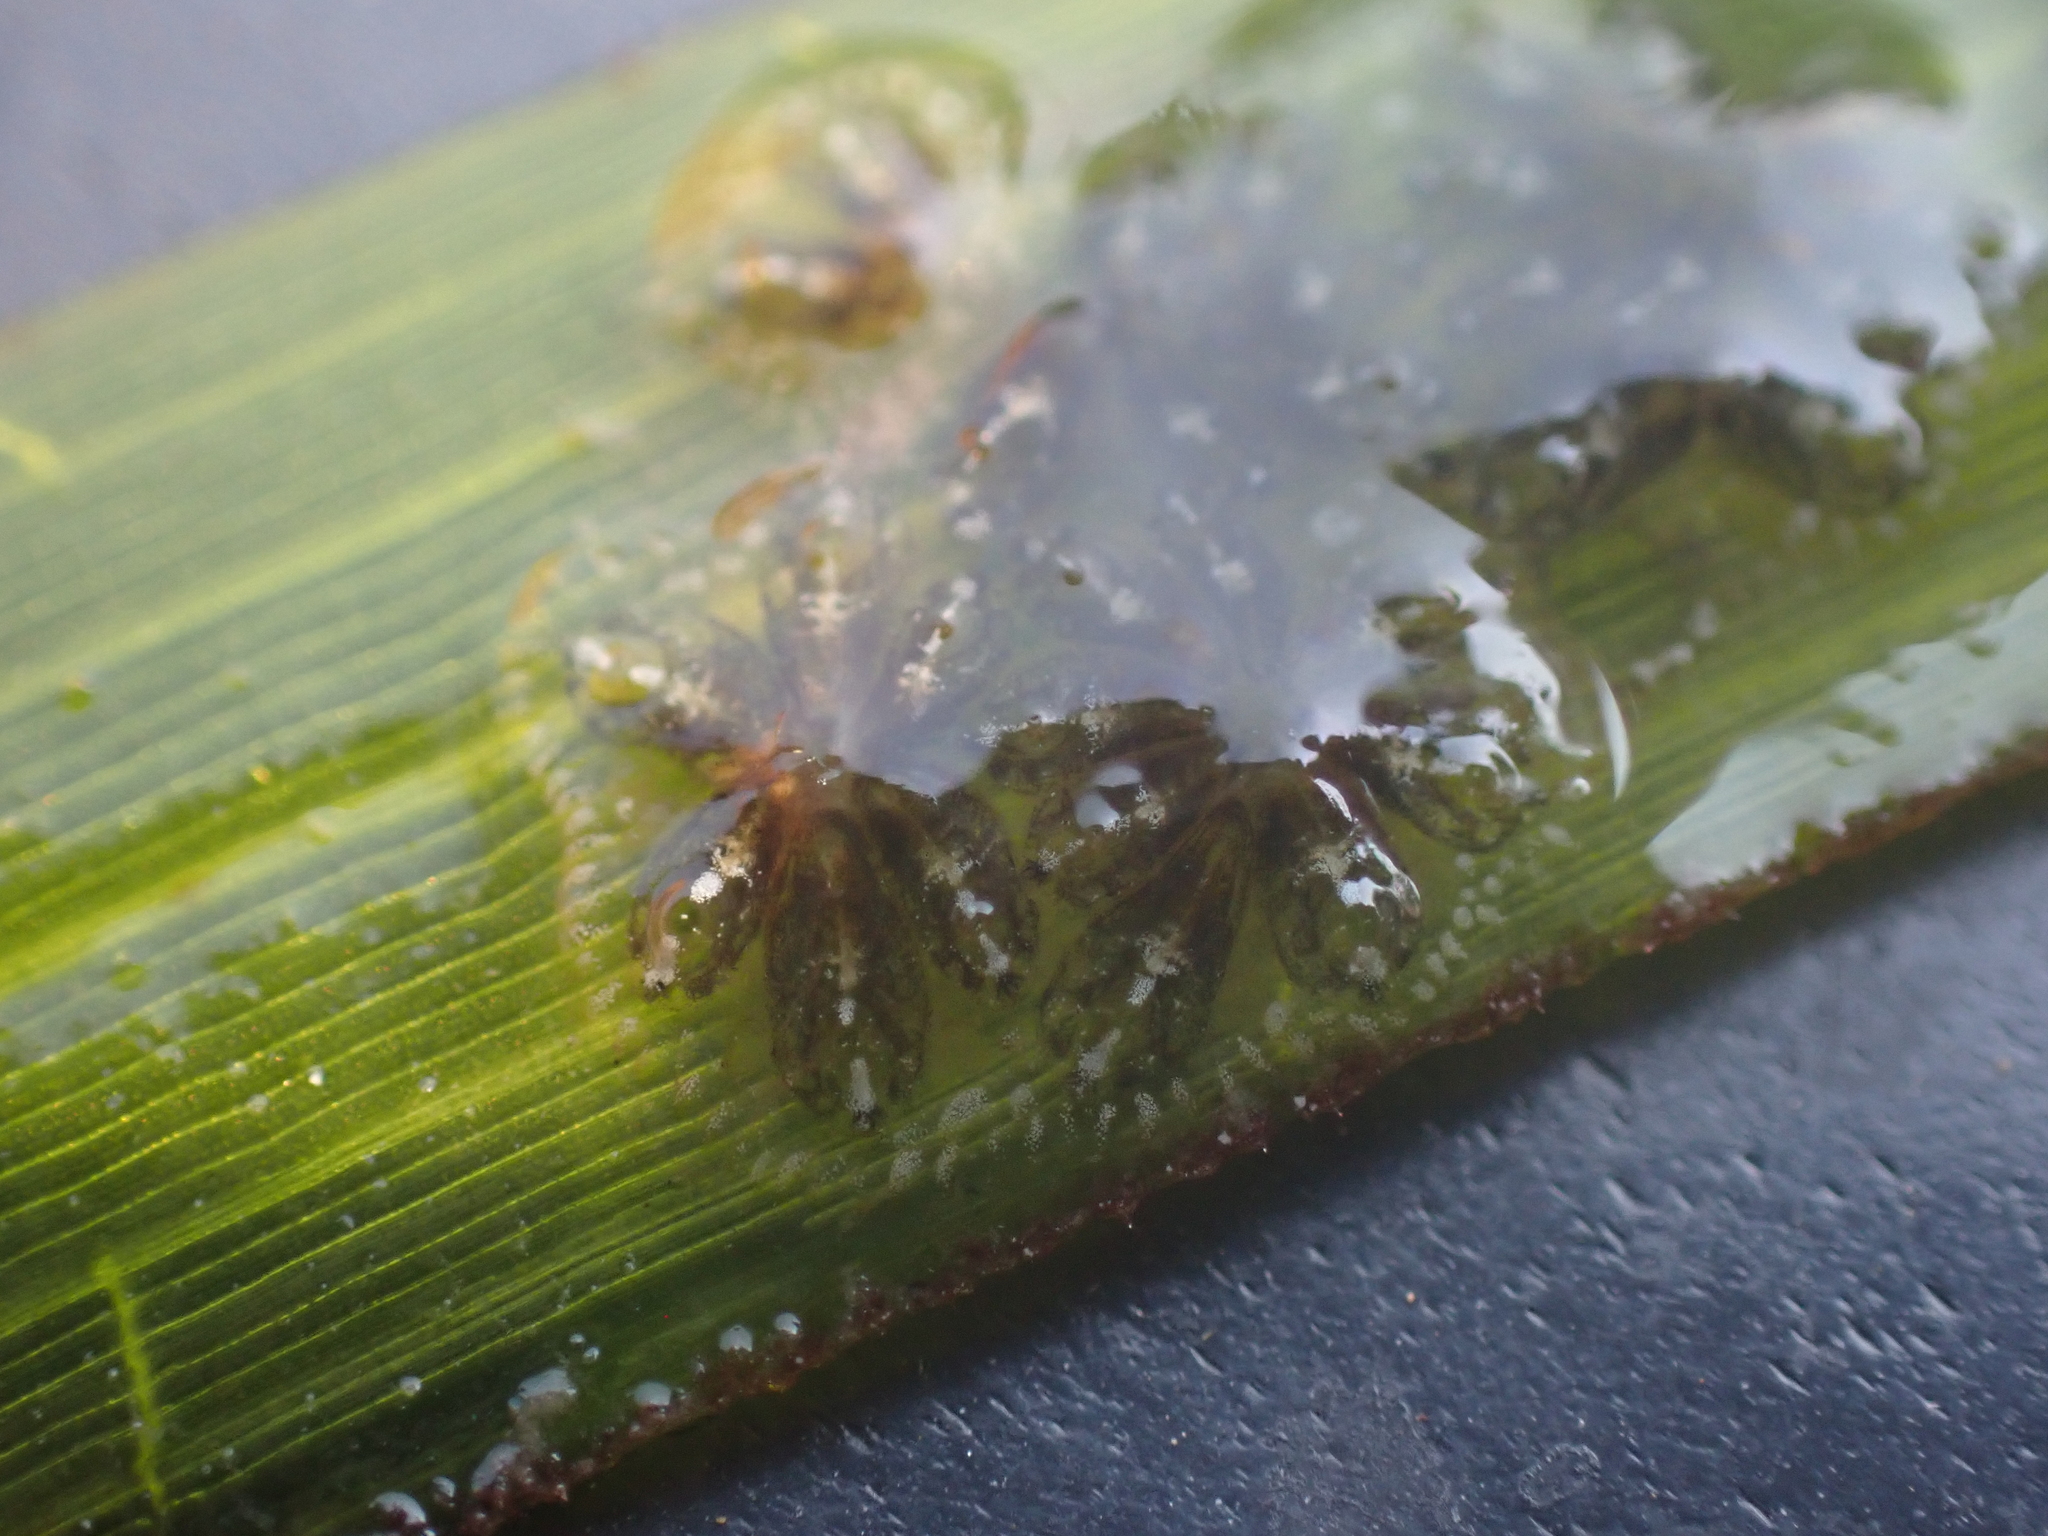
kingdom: Animalia
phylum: Chordata
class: Ascidiacea
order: Stolidobranchia
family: Styelidae
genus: Botryllus
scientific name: Botryllus schlosseri
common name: Golden star tunicate
